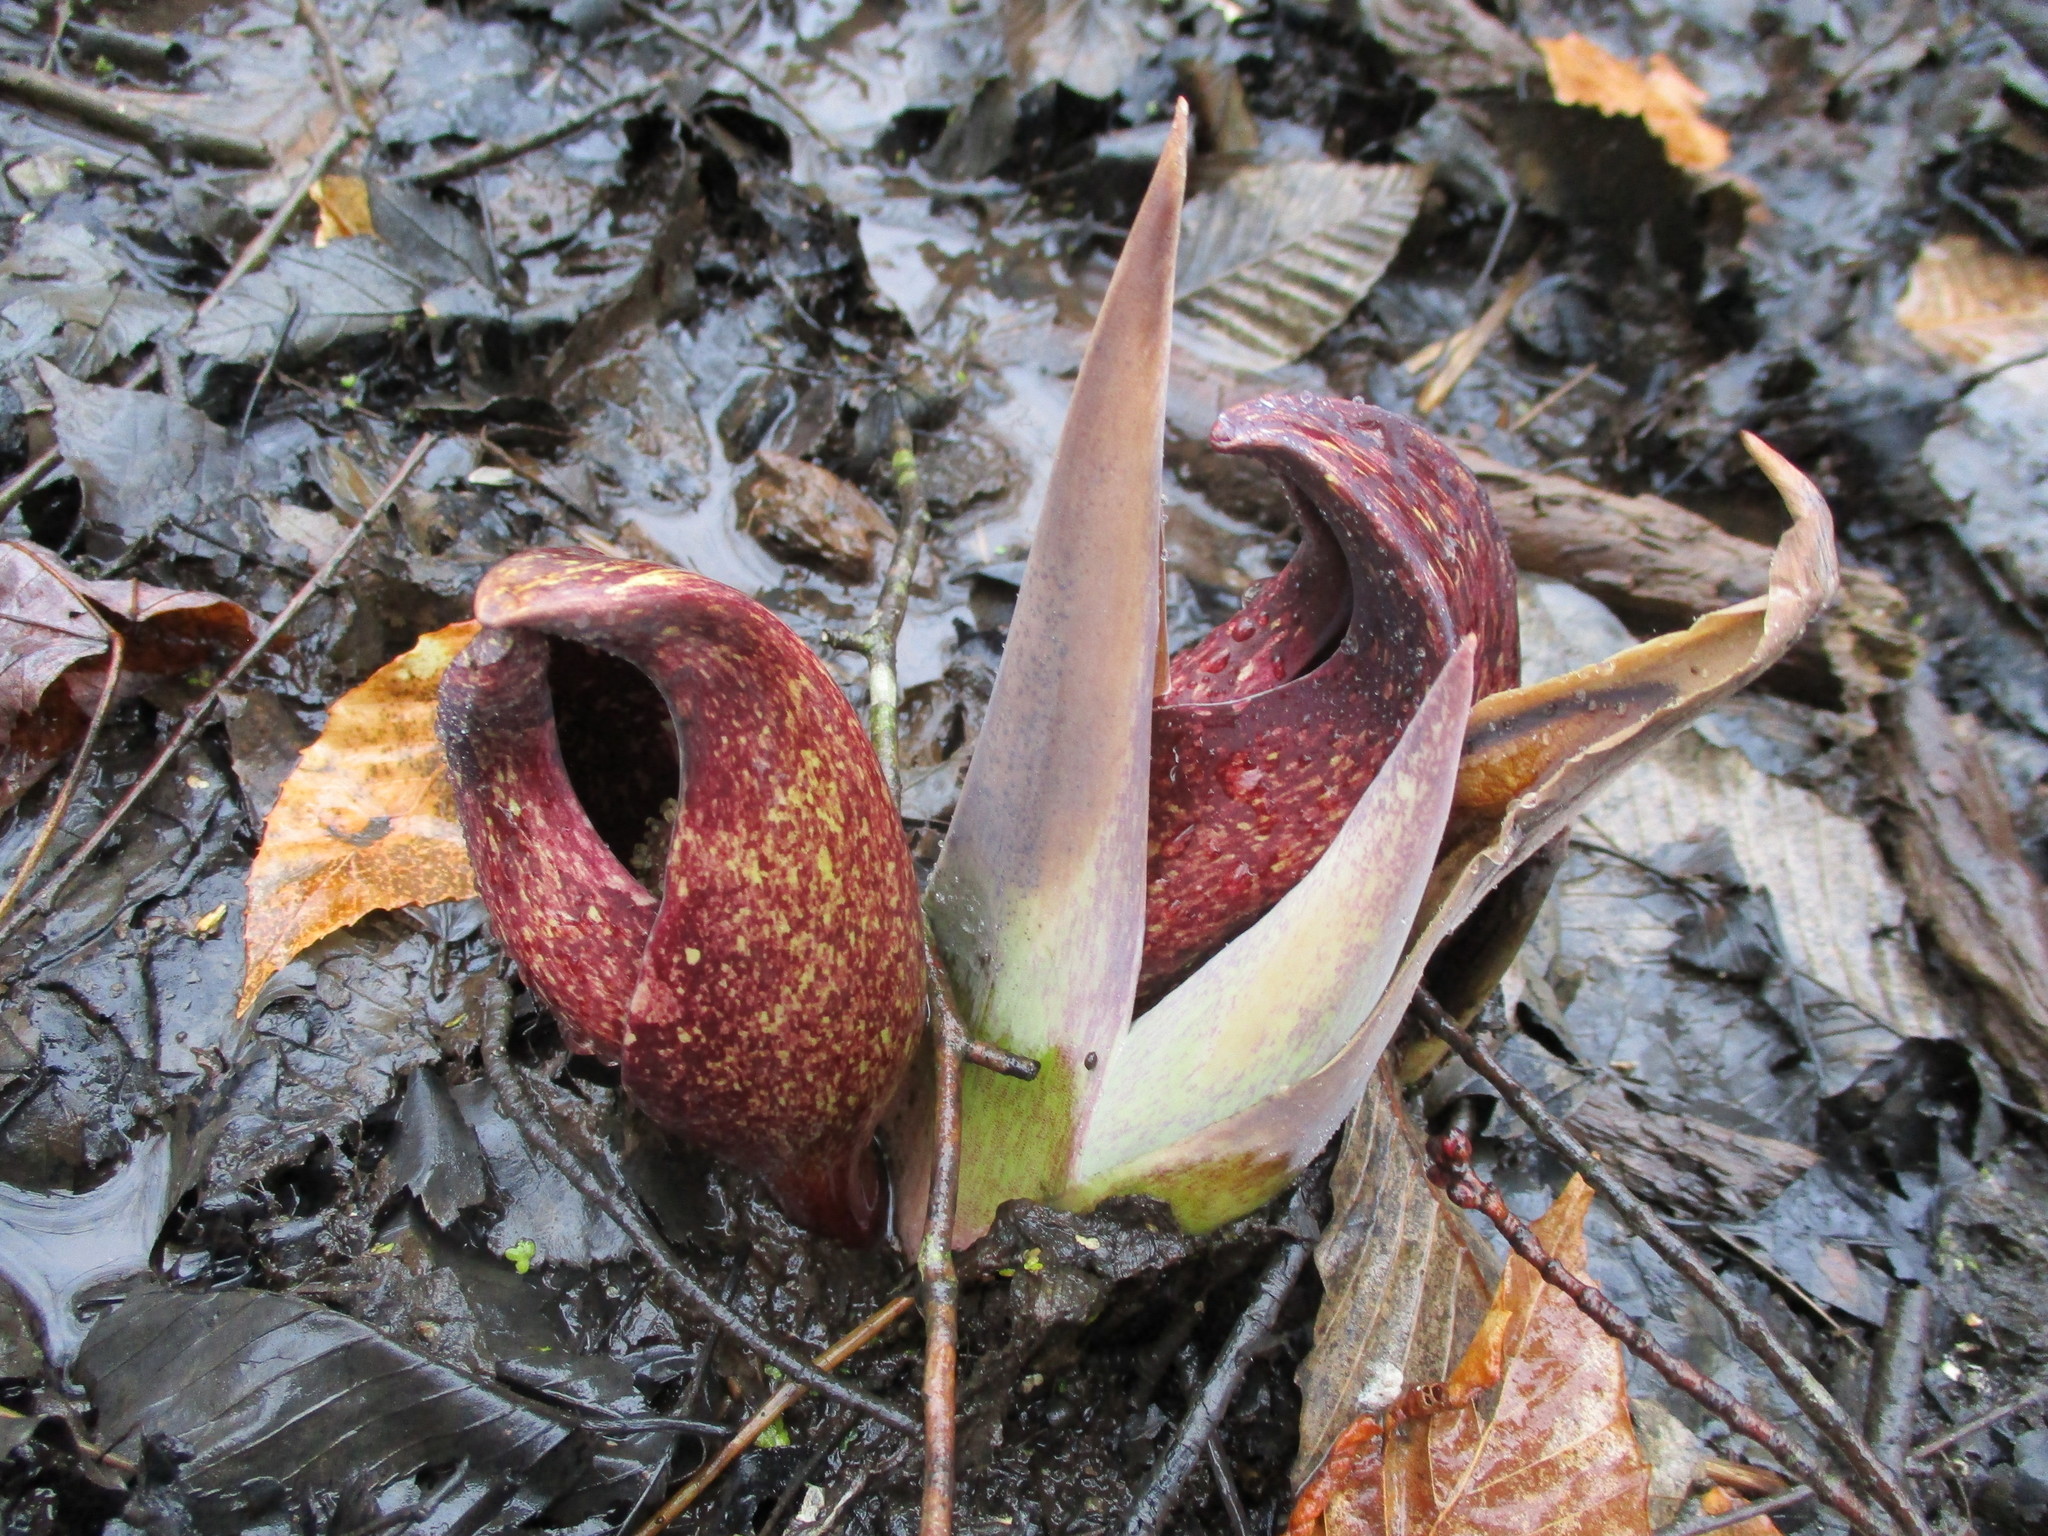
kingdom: Plantae
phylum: Tracheophyta
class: Liliopsida
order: Alismatales
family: Araceae
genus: Symplocarpus
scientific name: Symplocarpus foetidus
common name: Eastern skunk cabbage
